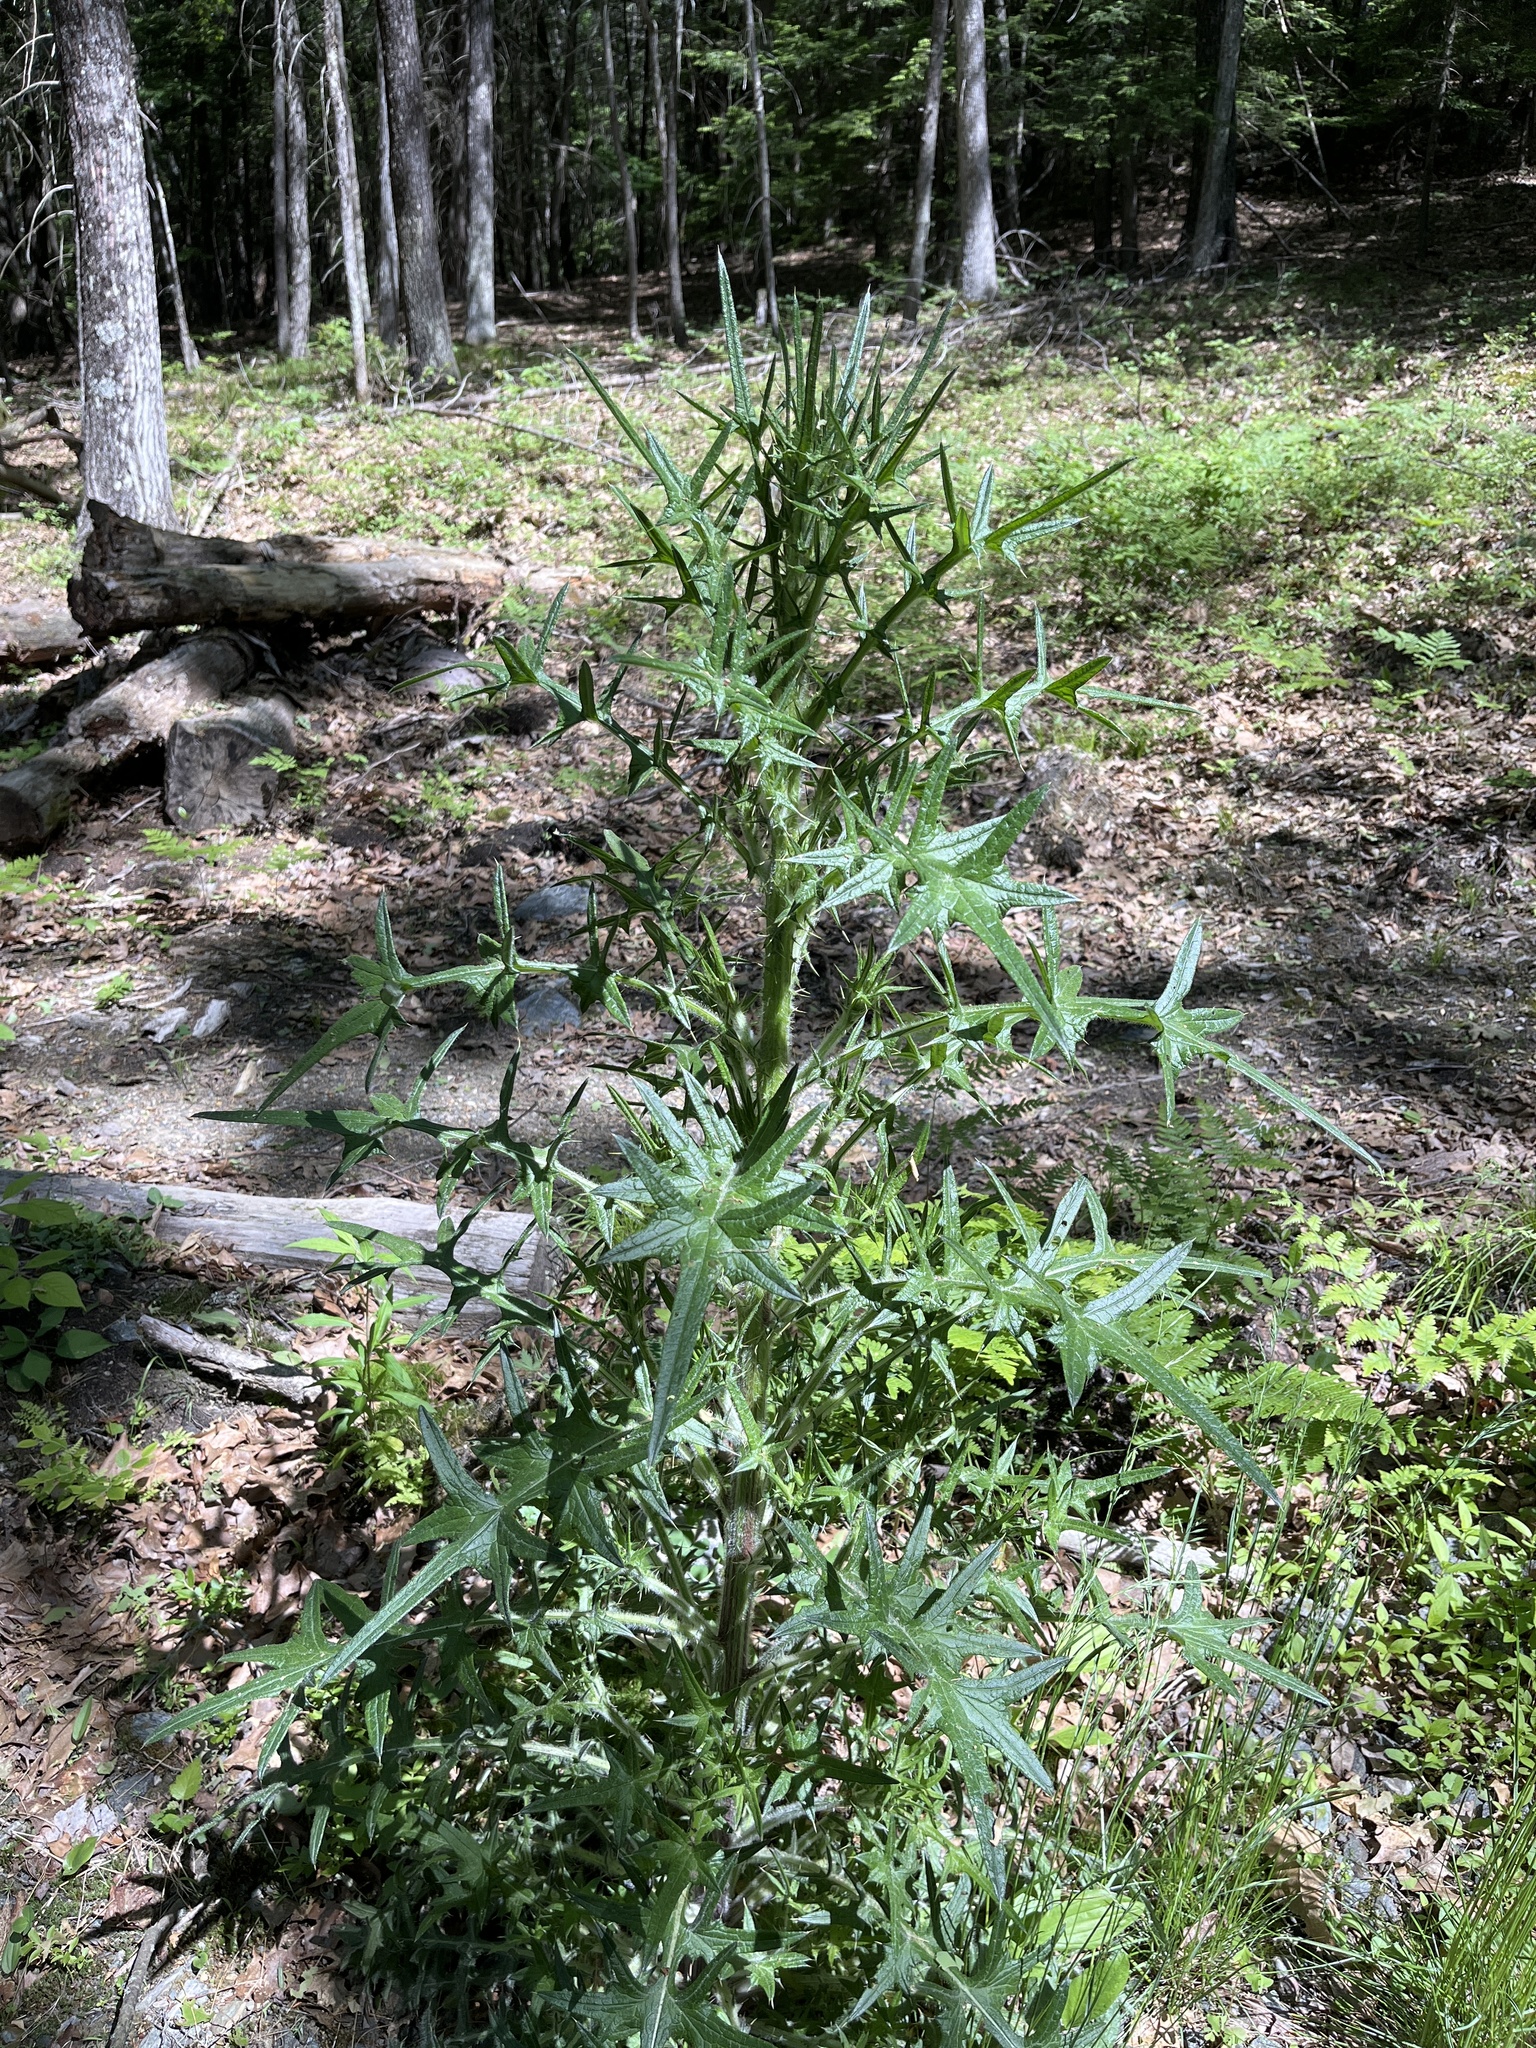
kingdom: Plantae
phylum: Tracheophyta
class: Magnoliopsida
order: Asterales
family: Asteraceae
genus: Cirsium
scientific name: Cirsium vulgare
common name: Bull thistle
